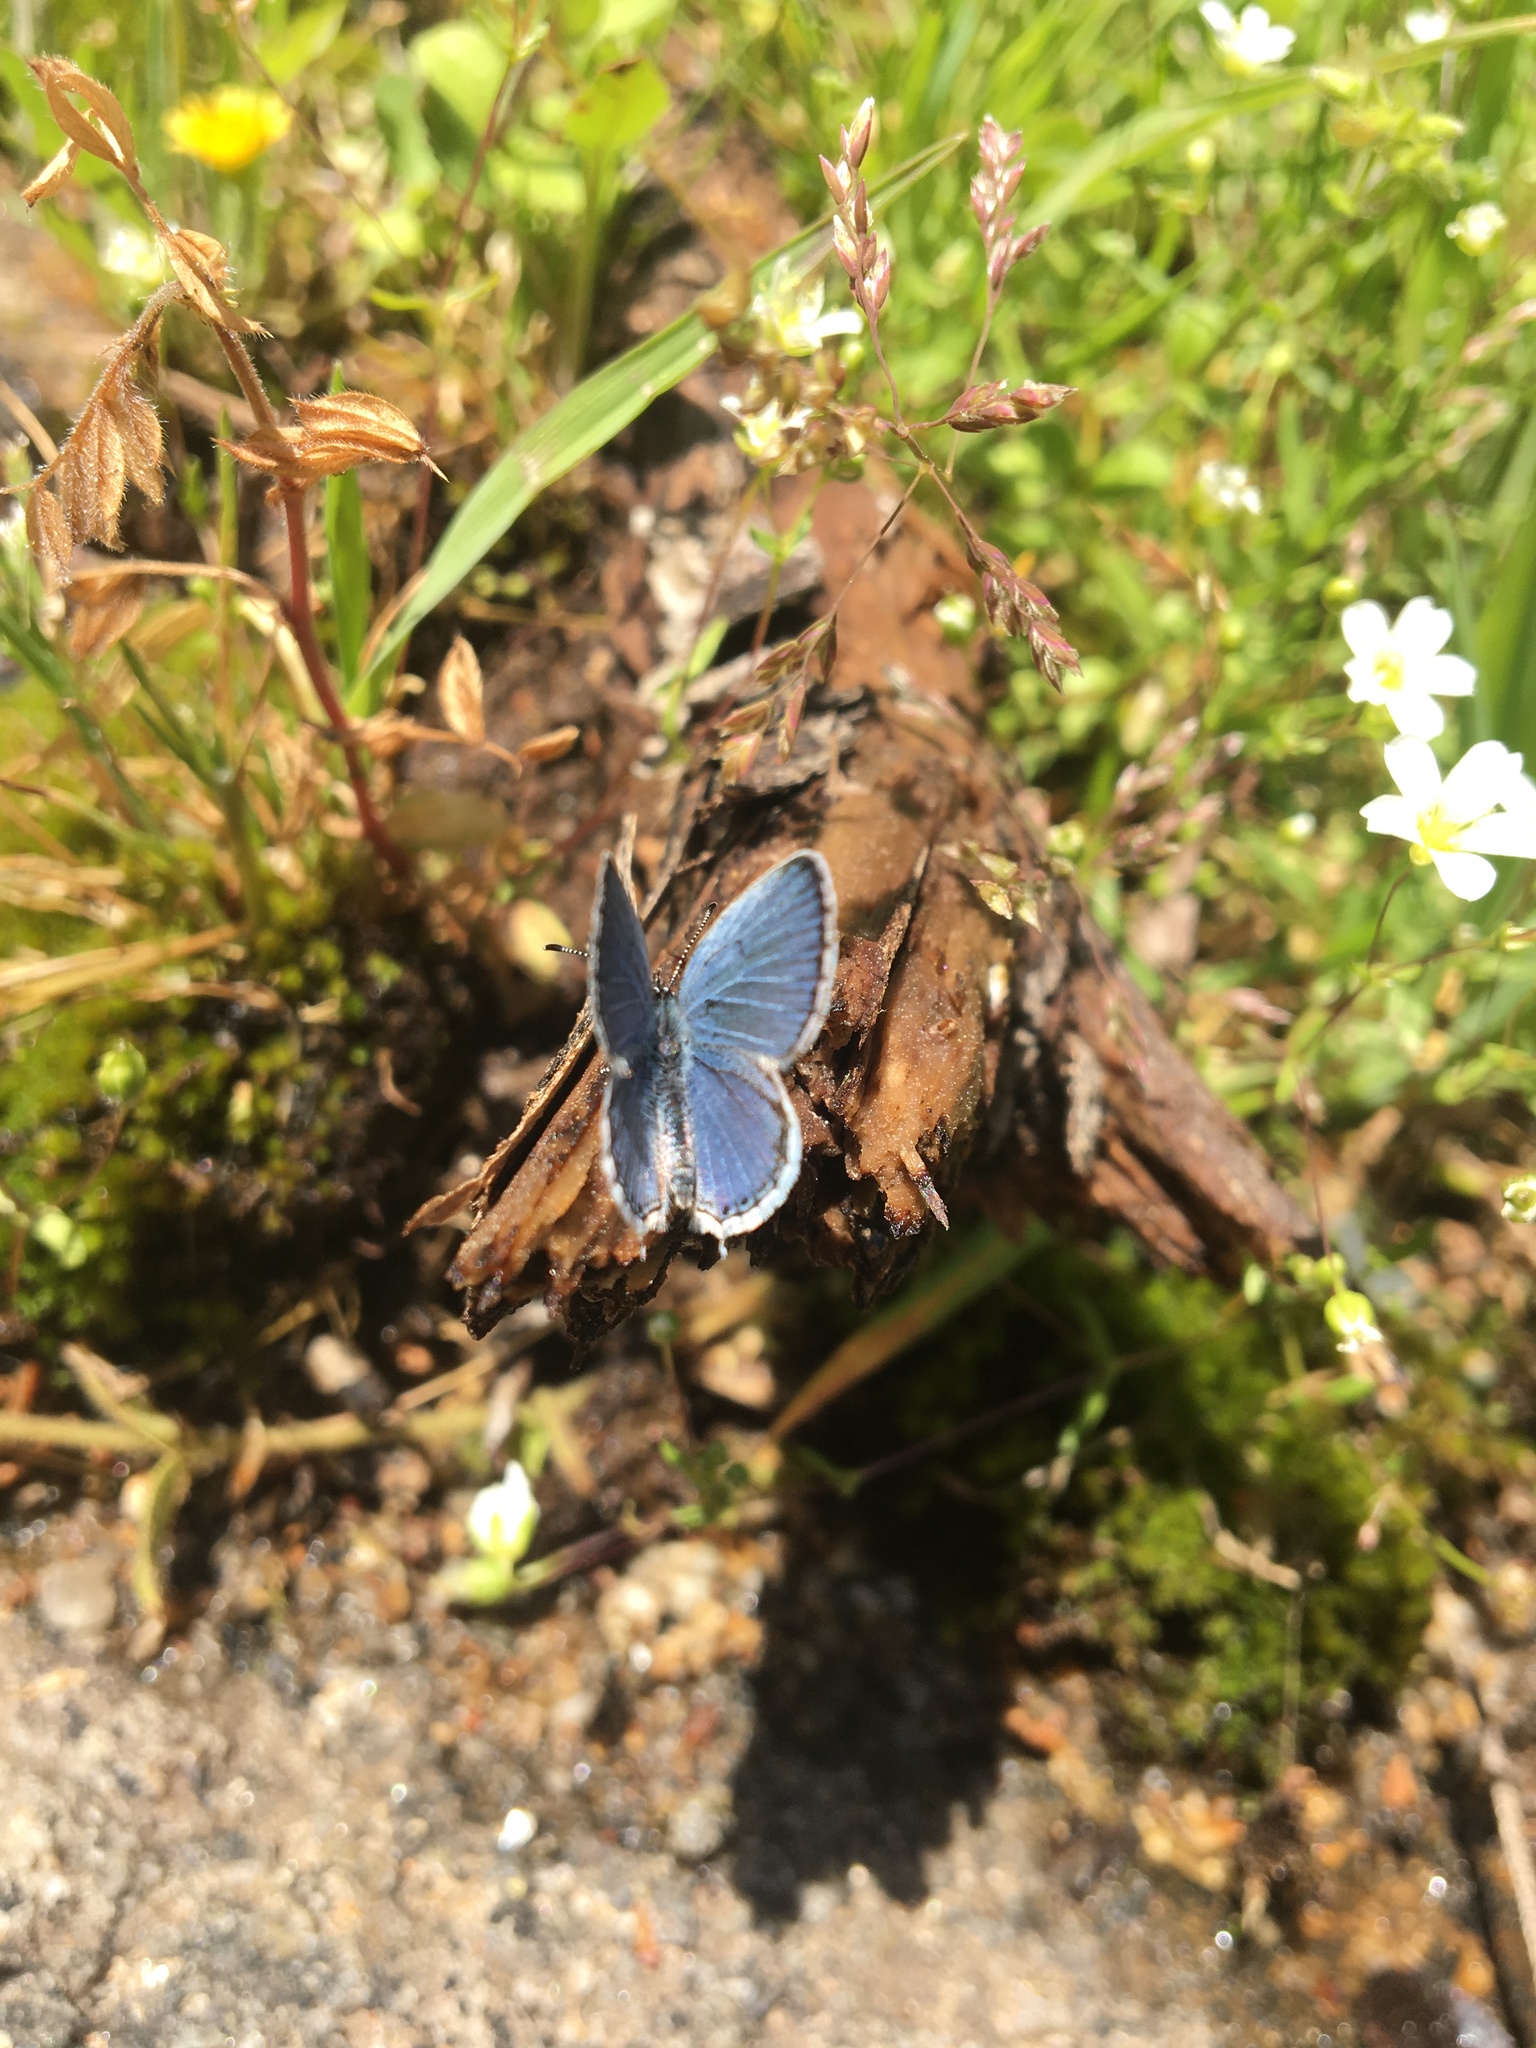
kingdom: Animalia
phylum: Arthropoda
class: Insecta
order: Lepidoptera
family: Lycaenidae
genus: Elkalyce
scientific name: Elkalyce comyntas
